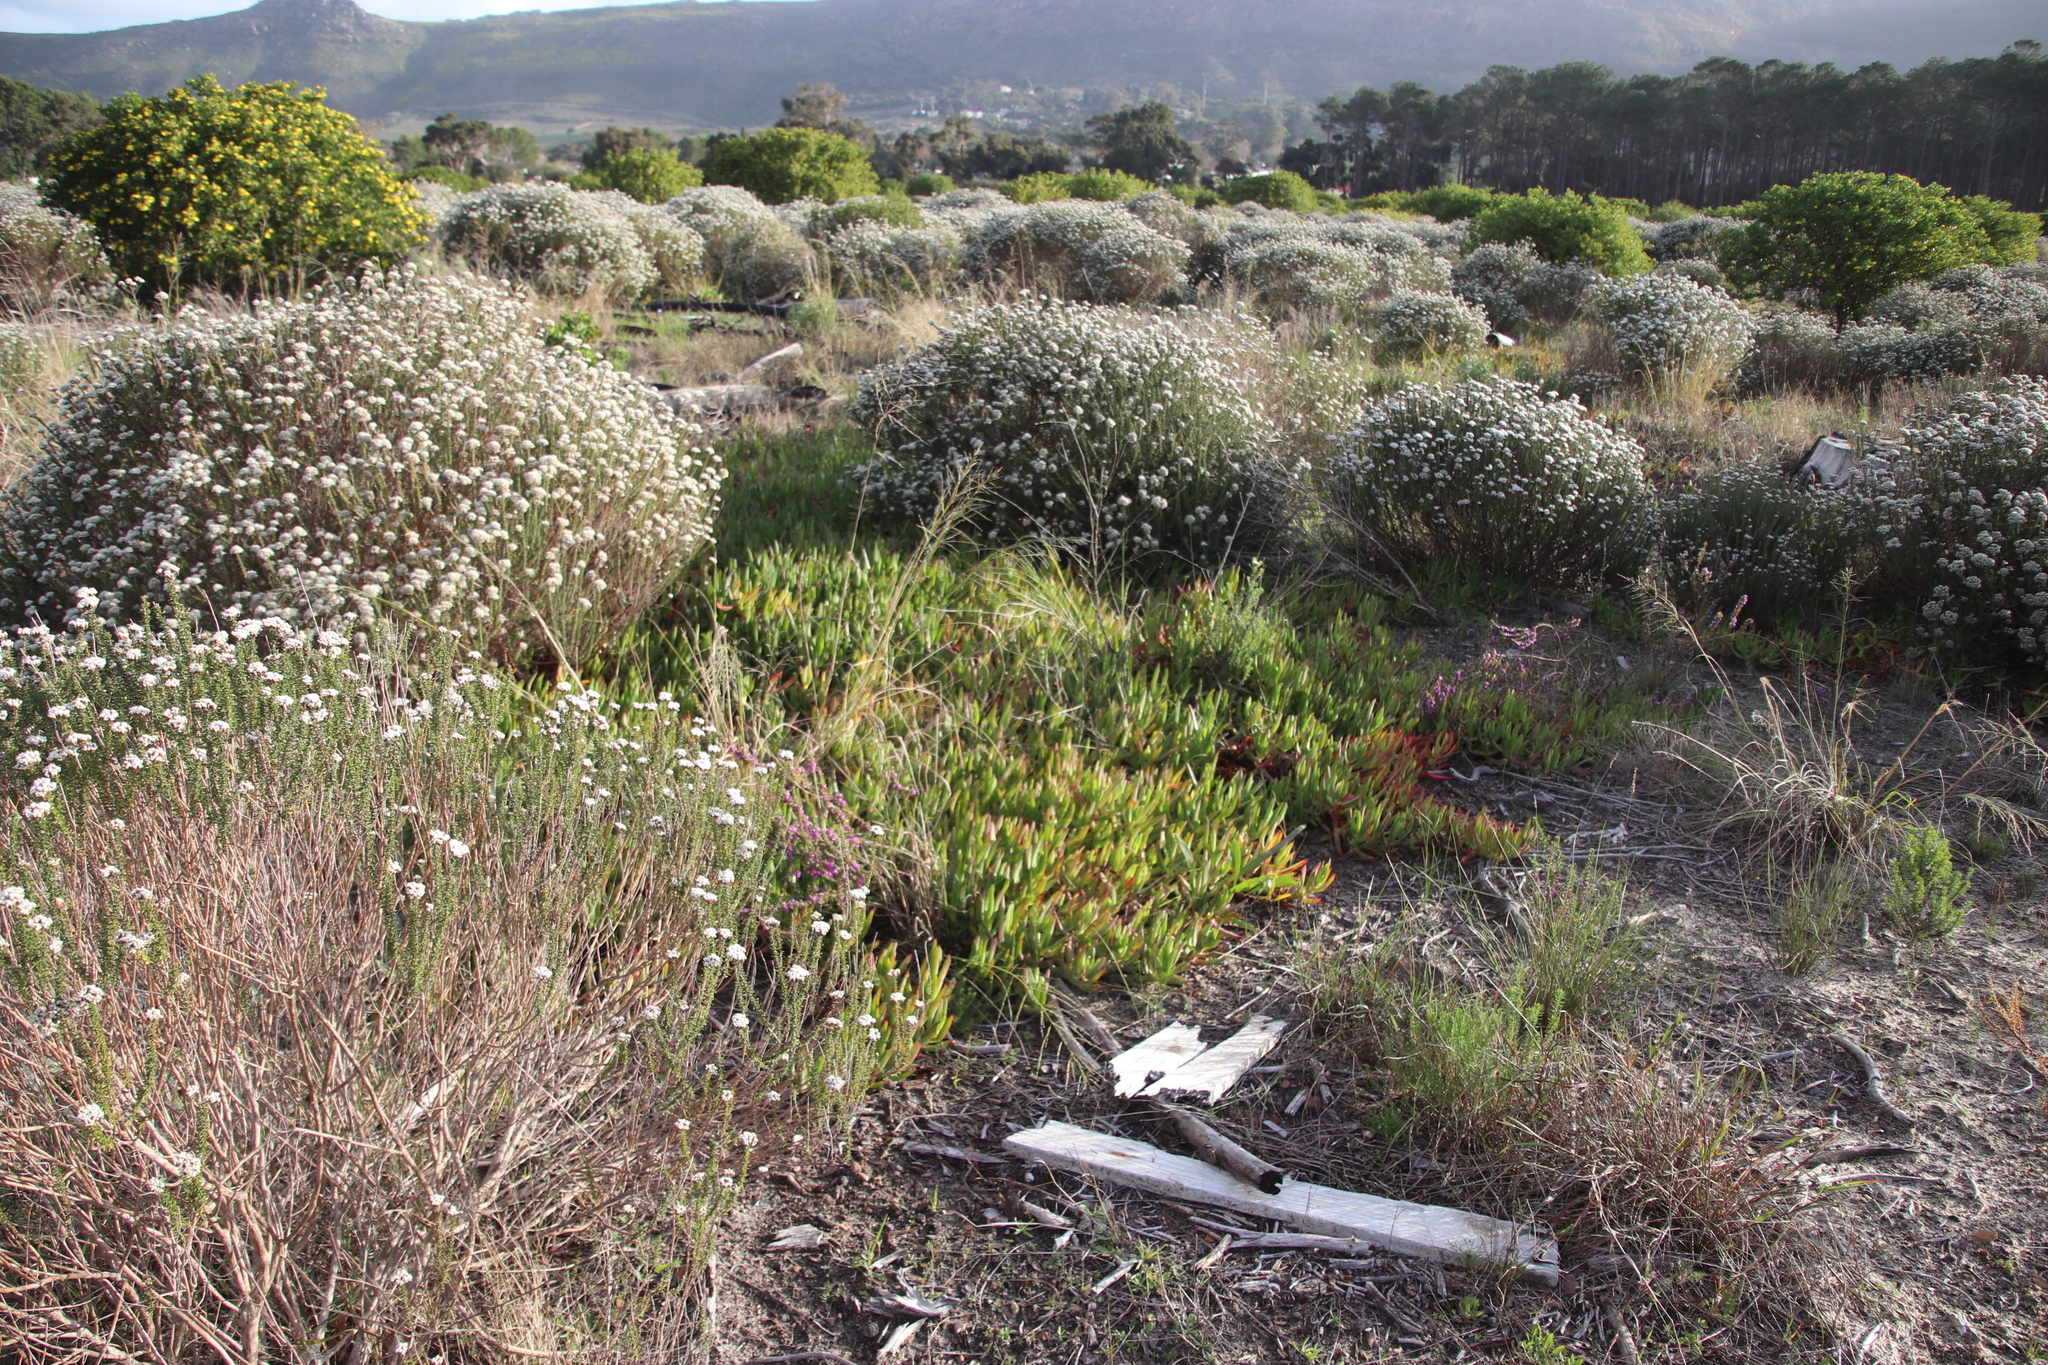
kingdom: Plantae
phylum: Tracheophyta
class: Magnoliopsida
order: Caryophyllales
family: Aizoaceae
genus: Carpobrotus
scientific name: Carpobrotus edulis
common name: Hottentot-fig
